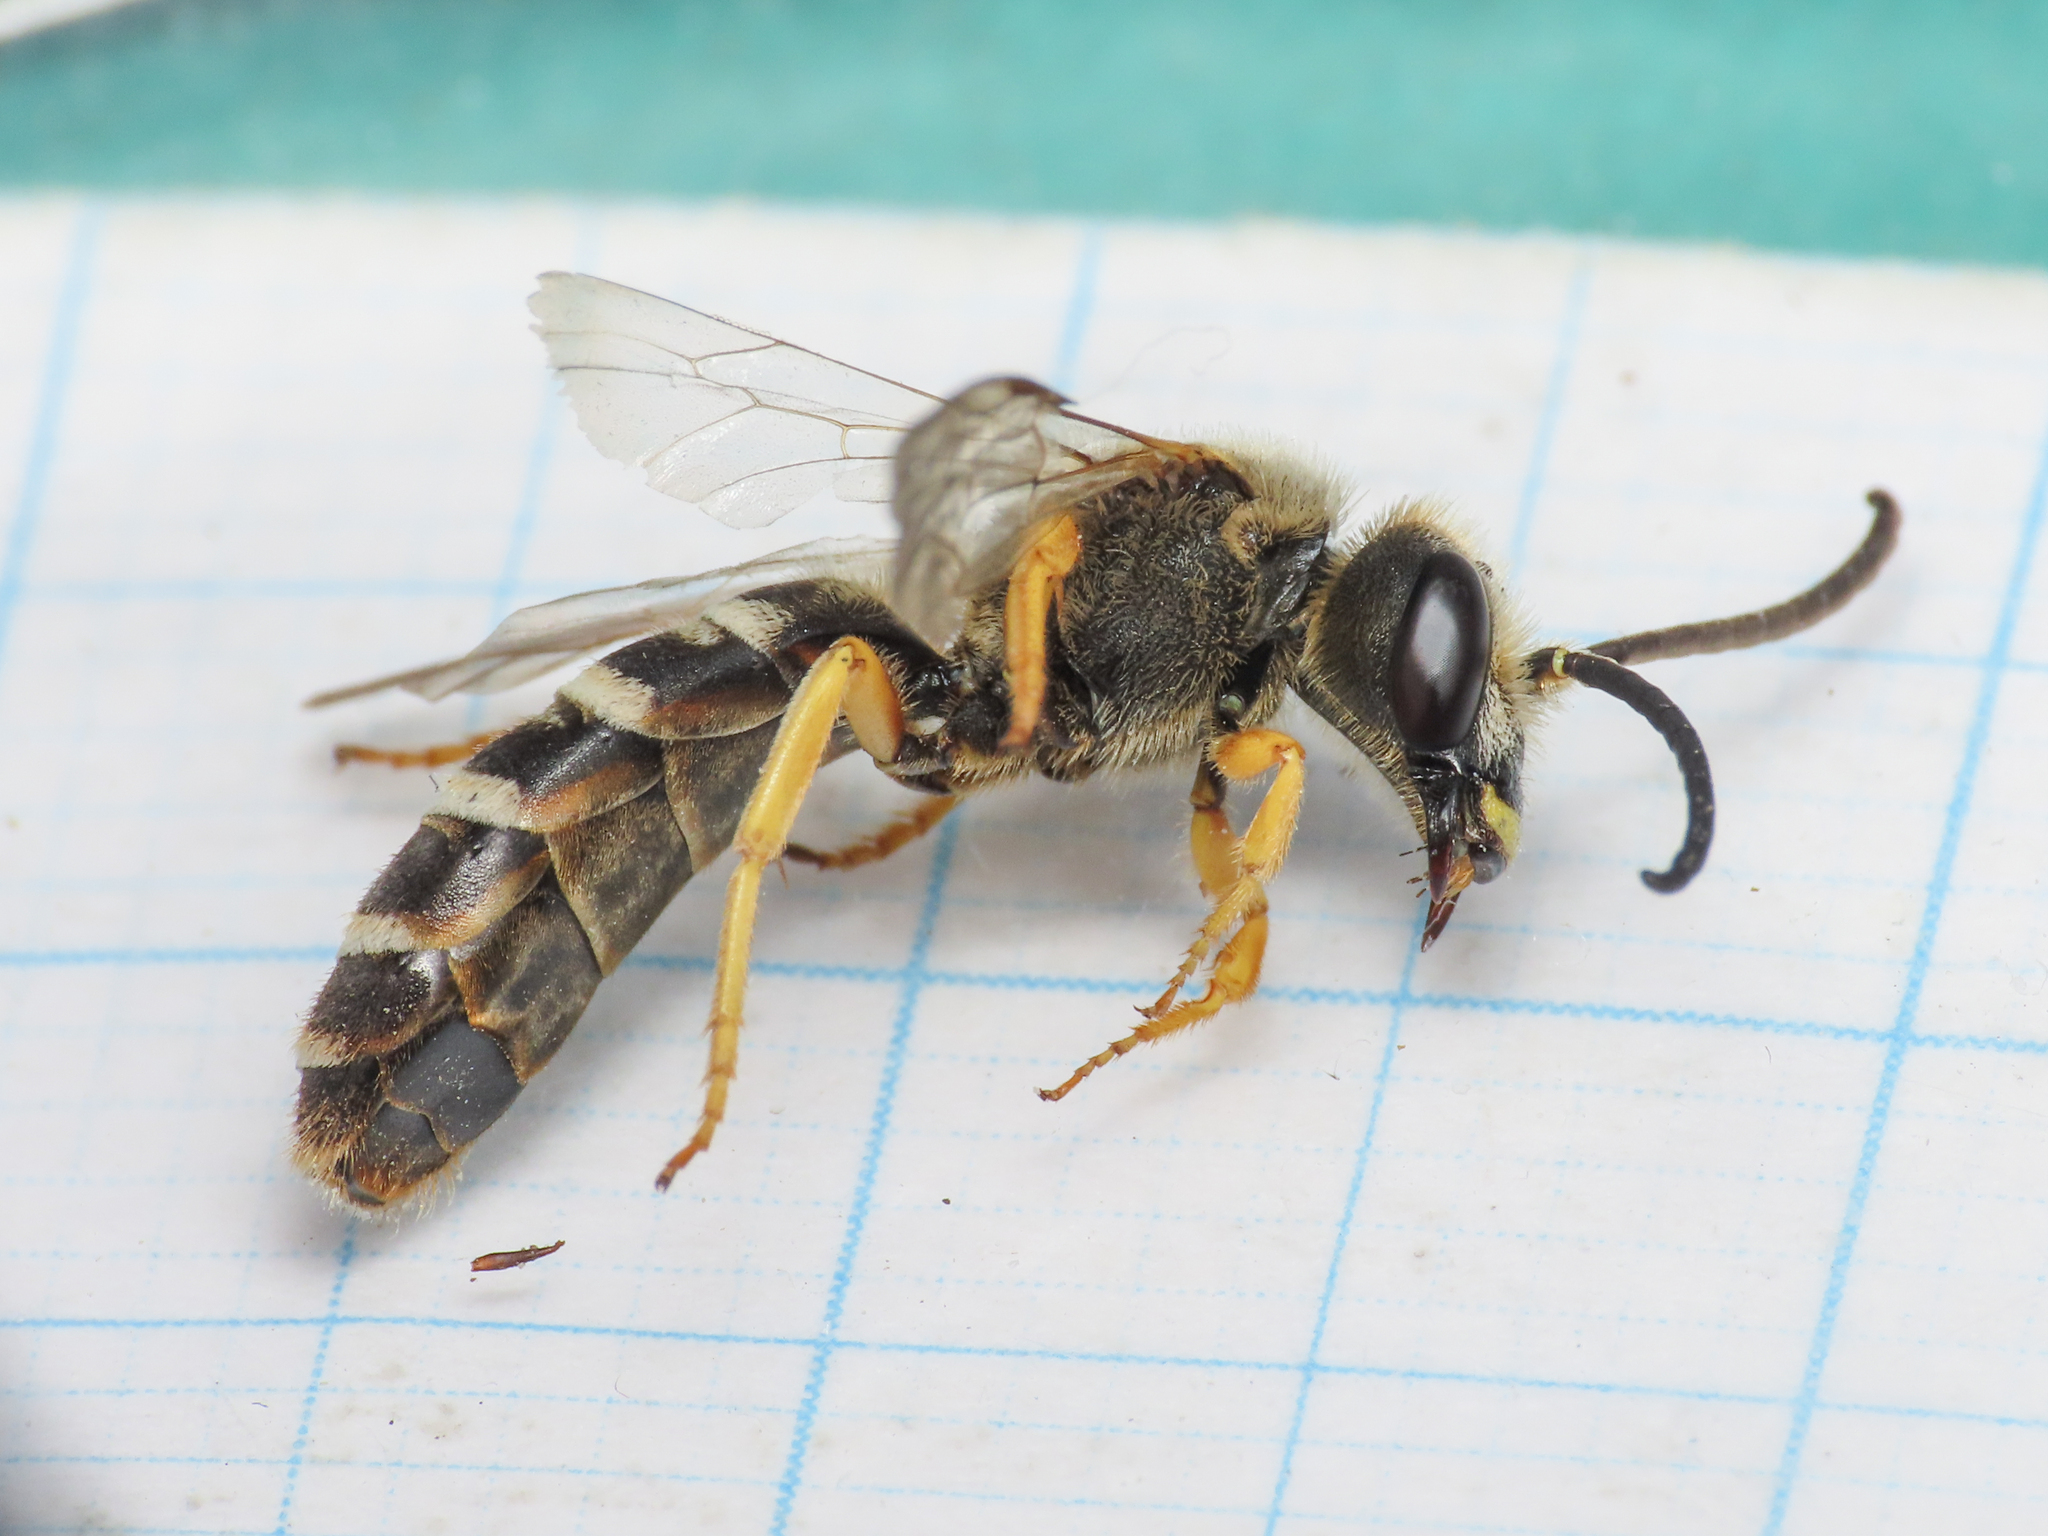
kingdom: Animalia
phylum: Arthropoda
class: Insecta
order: Hymenoptera
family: Halictidae
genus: Halictus
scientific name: Halictus scabiosae
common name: Great banded furrow bee
